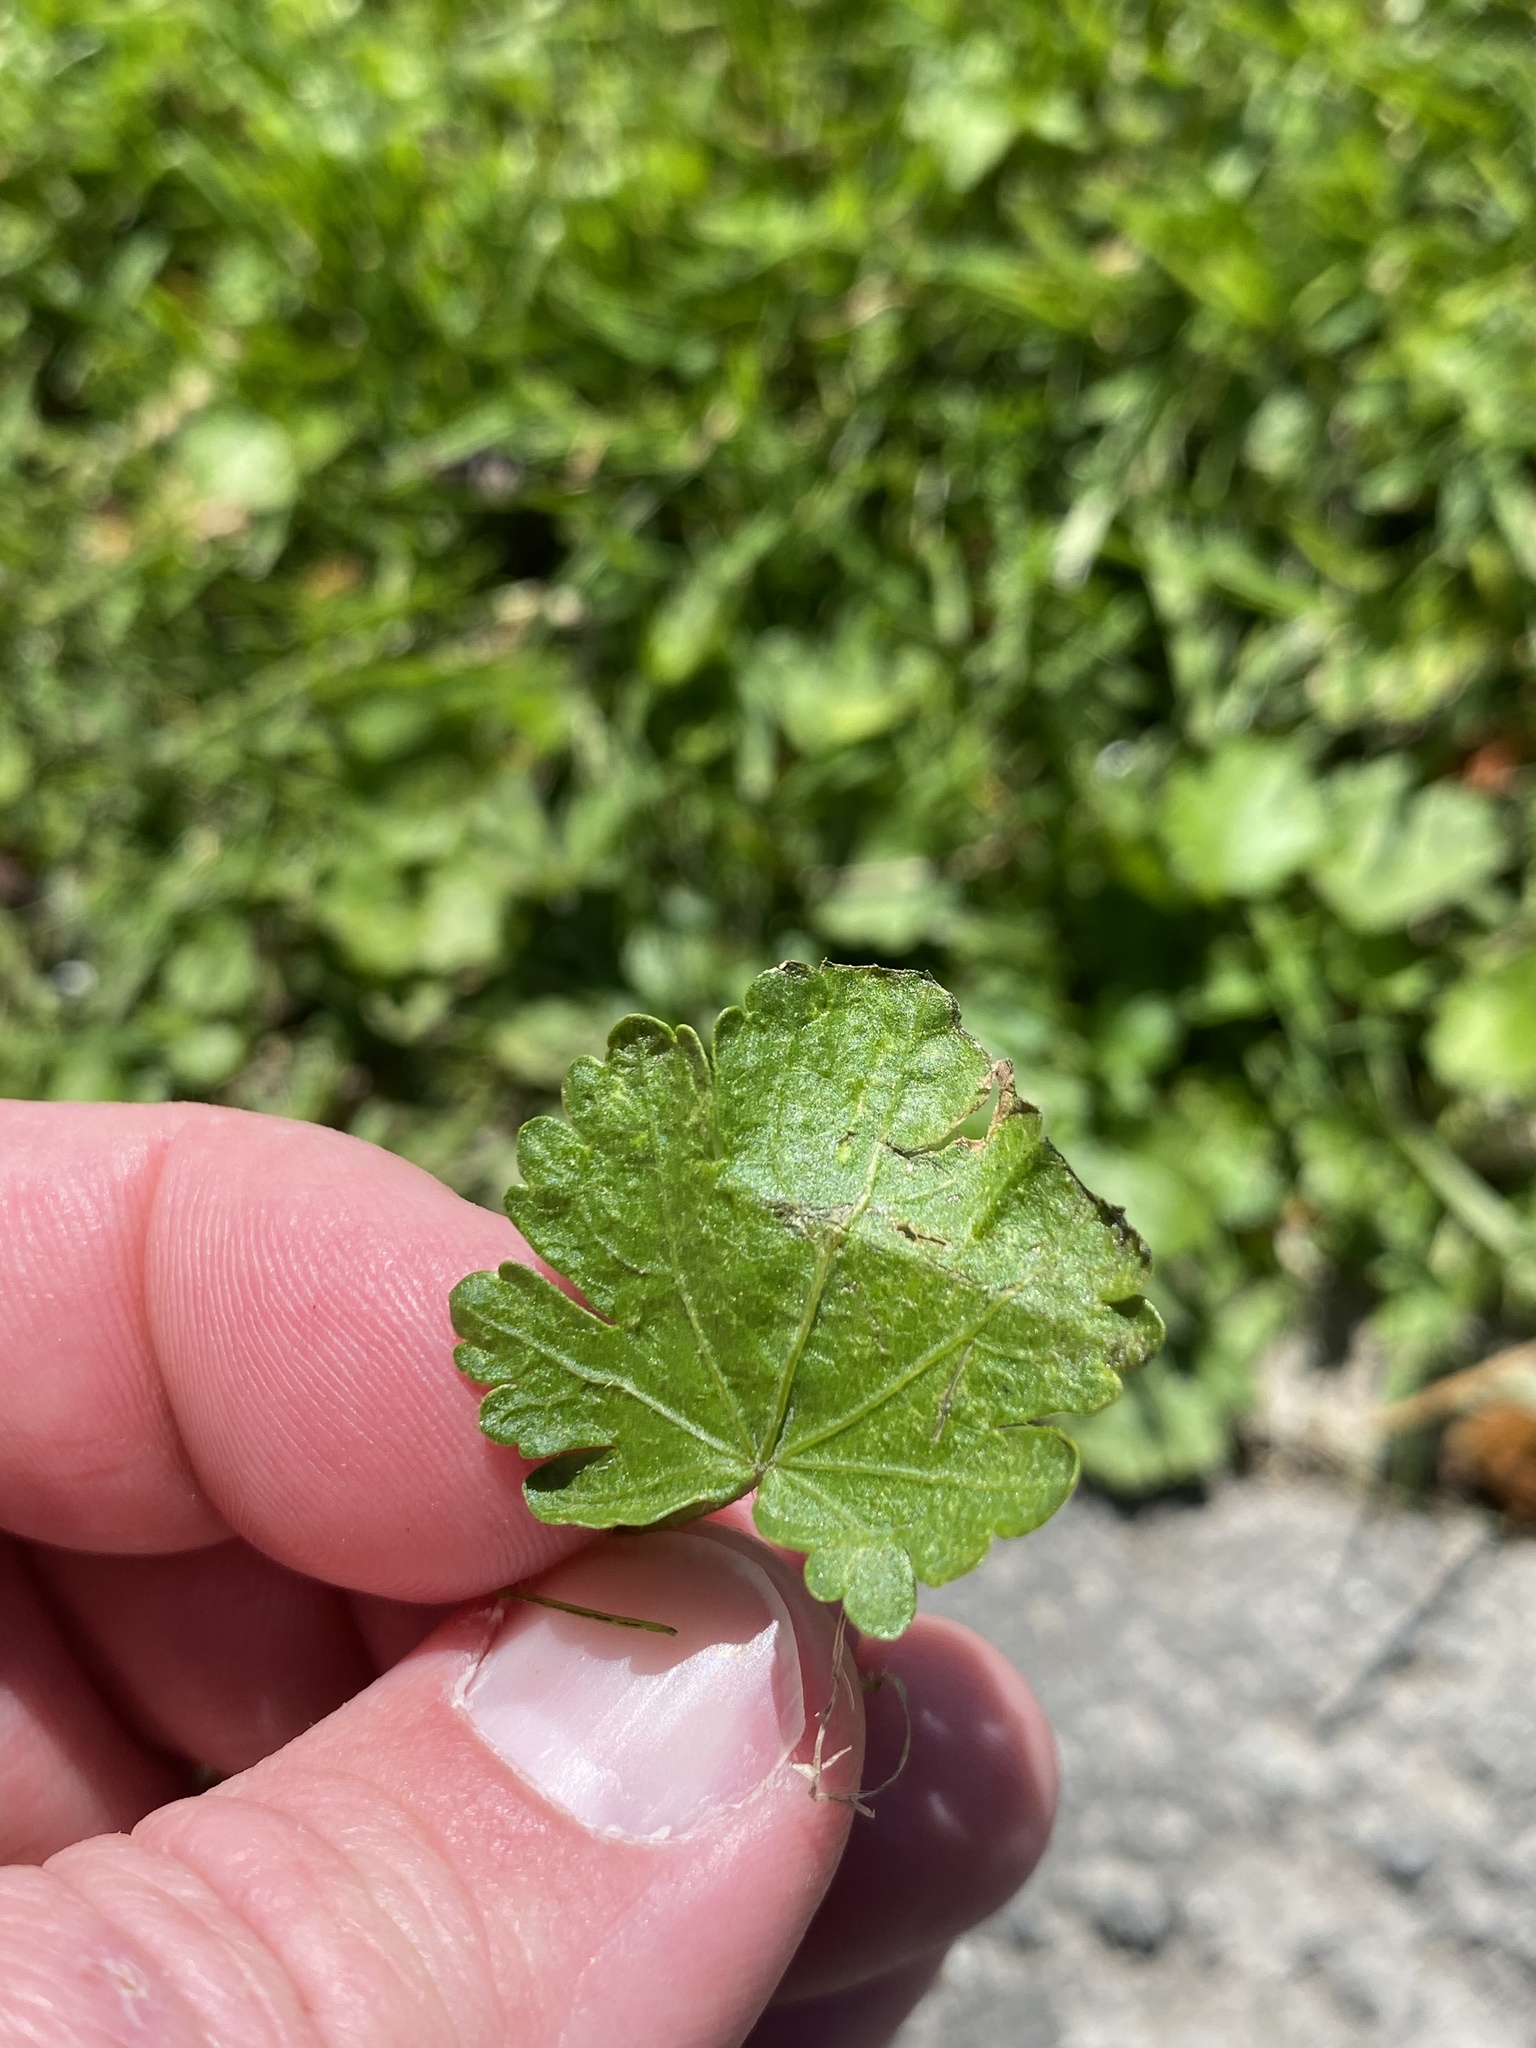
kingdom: Plantae
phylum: Tracheophyta
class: Magnoliopsida
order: Malvales
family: Malvaceae
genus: Modiola
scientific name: Modiola caroliniana
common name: Carolina bristlemallow
